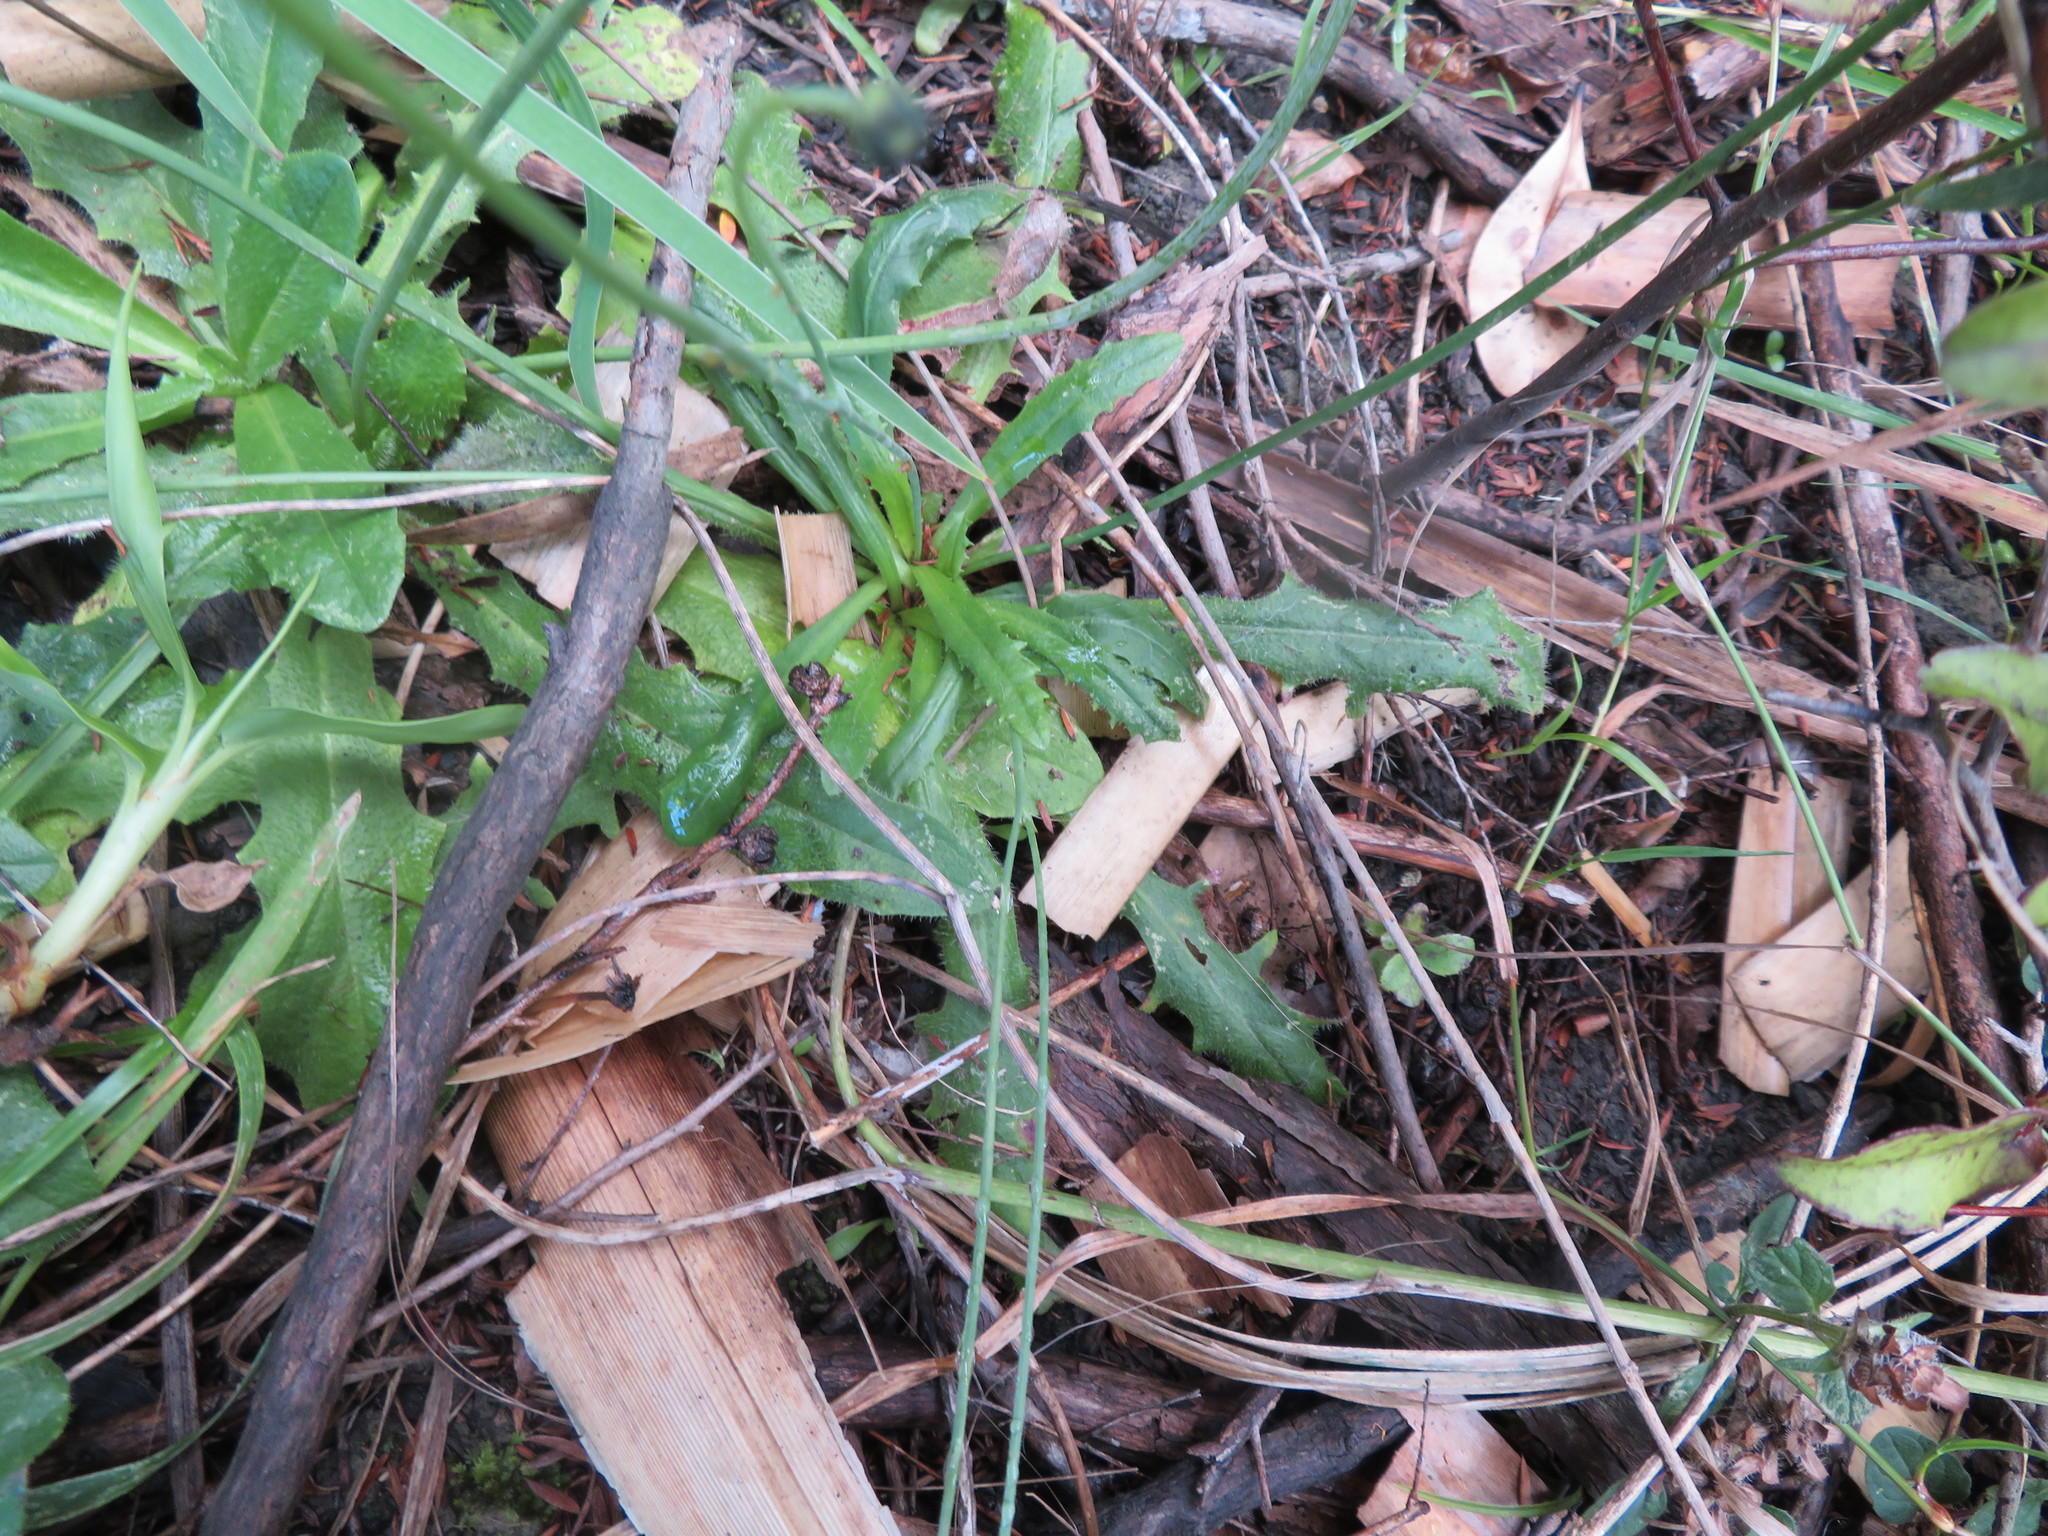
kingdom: Plantae
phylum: Tracheophyta
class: Magnoliopsida
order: Asterales
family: Asteraceae
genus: Hypochaeris
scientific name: Hypochaeris radicata
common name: Flatweed
